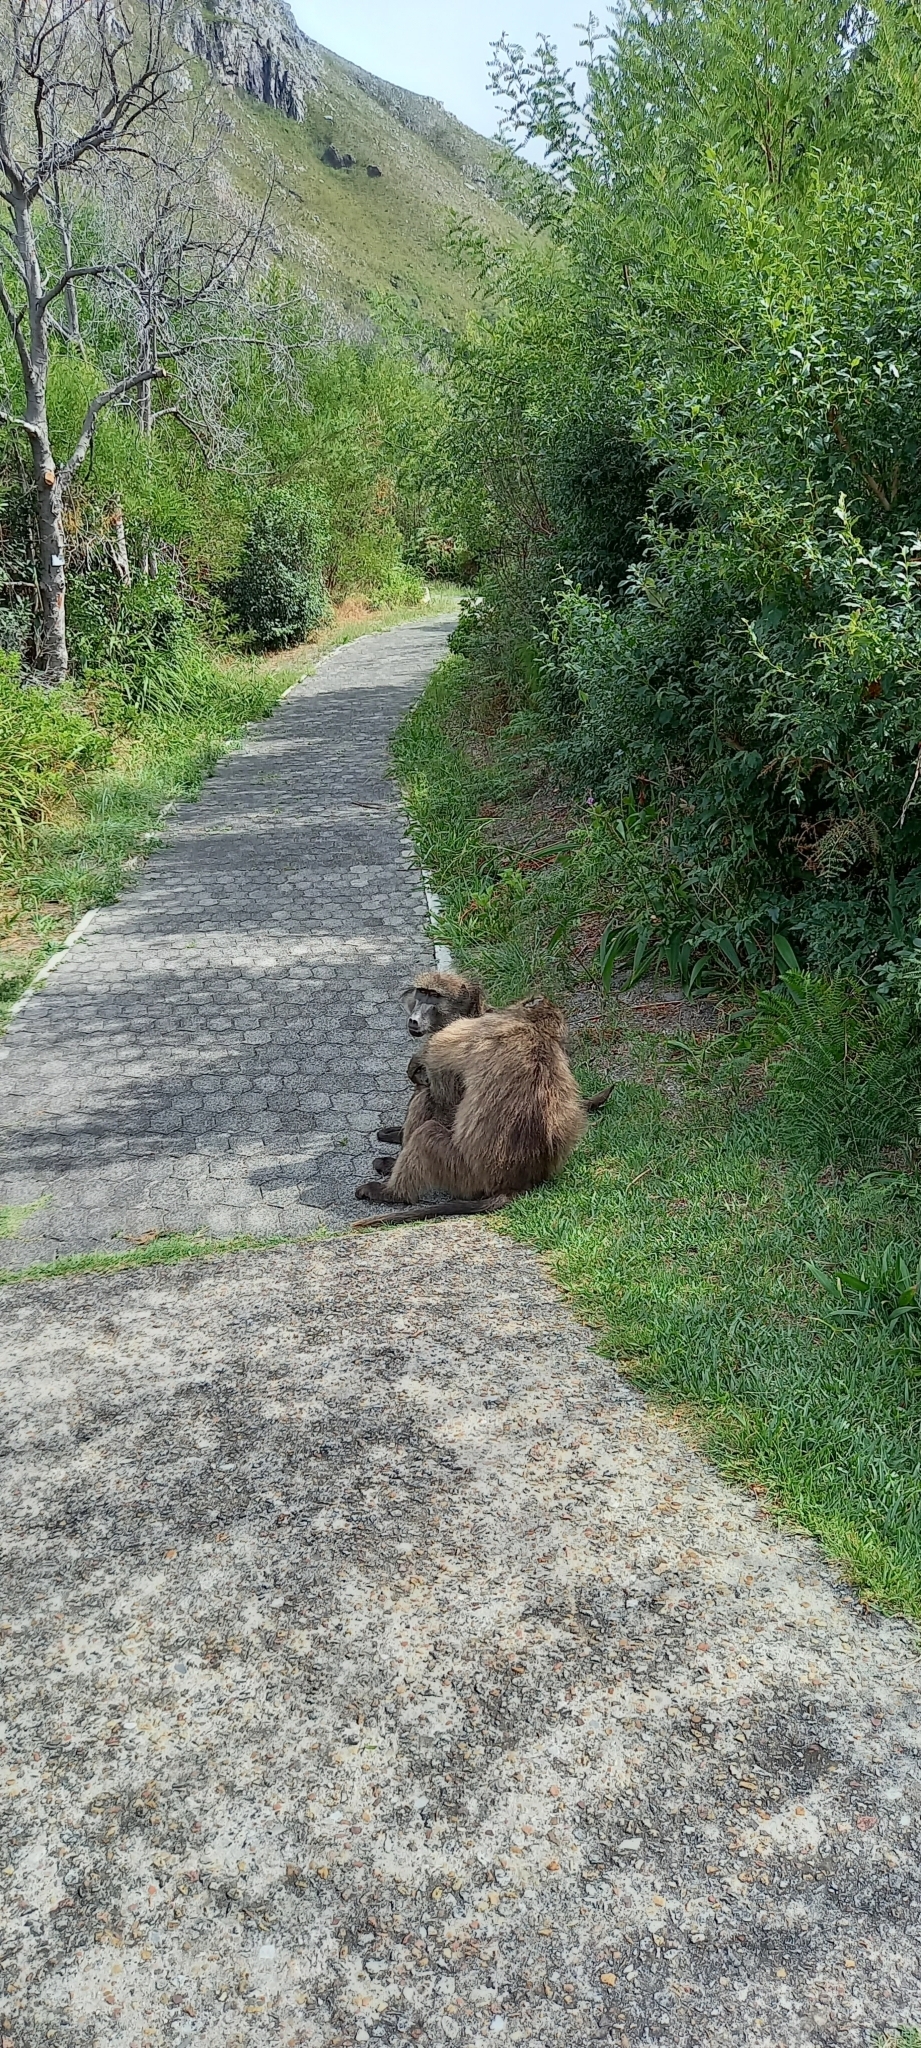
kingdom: Animalia
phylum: Chordata
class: Mammalia
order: Primates
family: Cercopithecidae
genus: Papio
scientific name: Papio ursinus
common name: Chacma baboon
